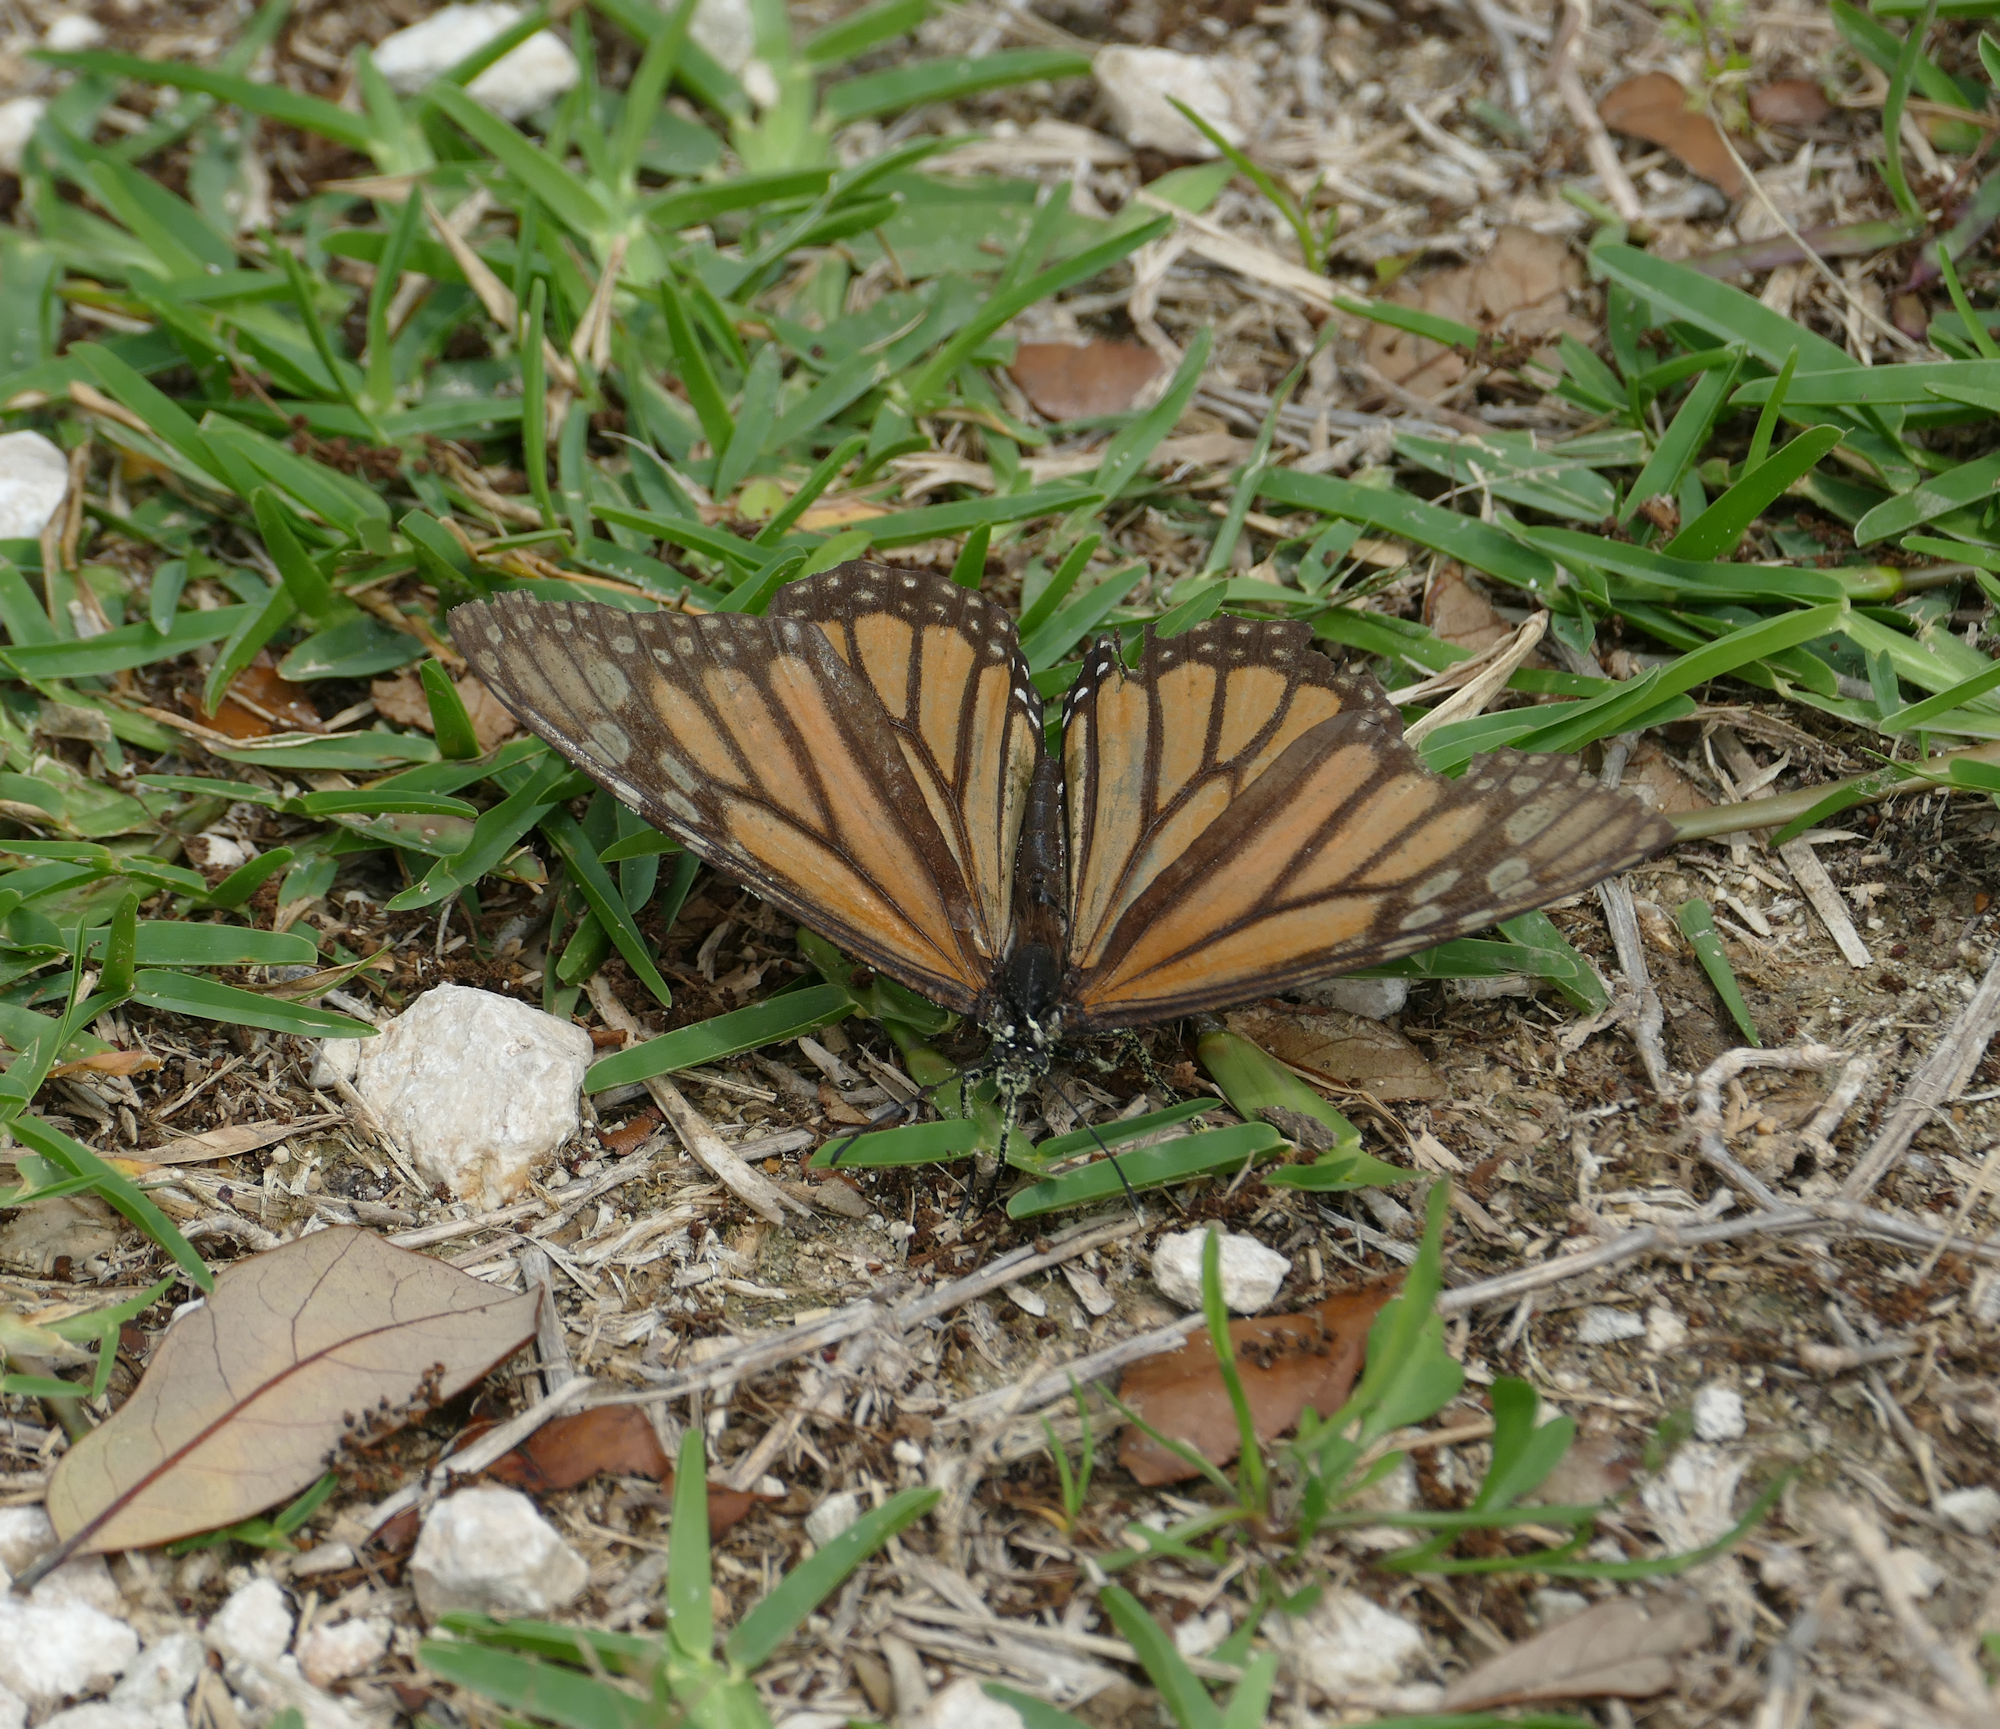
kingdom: Animalia
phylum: Arthropoda
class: Insecta
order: Lepidoptera
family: Nymphalidae
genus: Danaus
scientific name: Danaus plexippus
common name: Monarch
